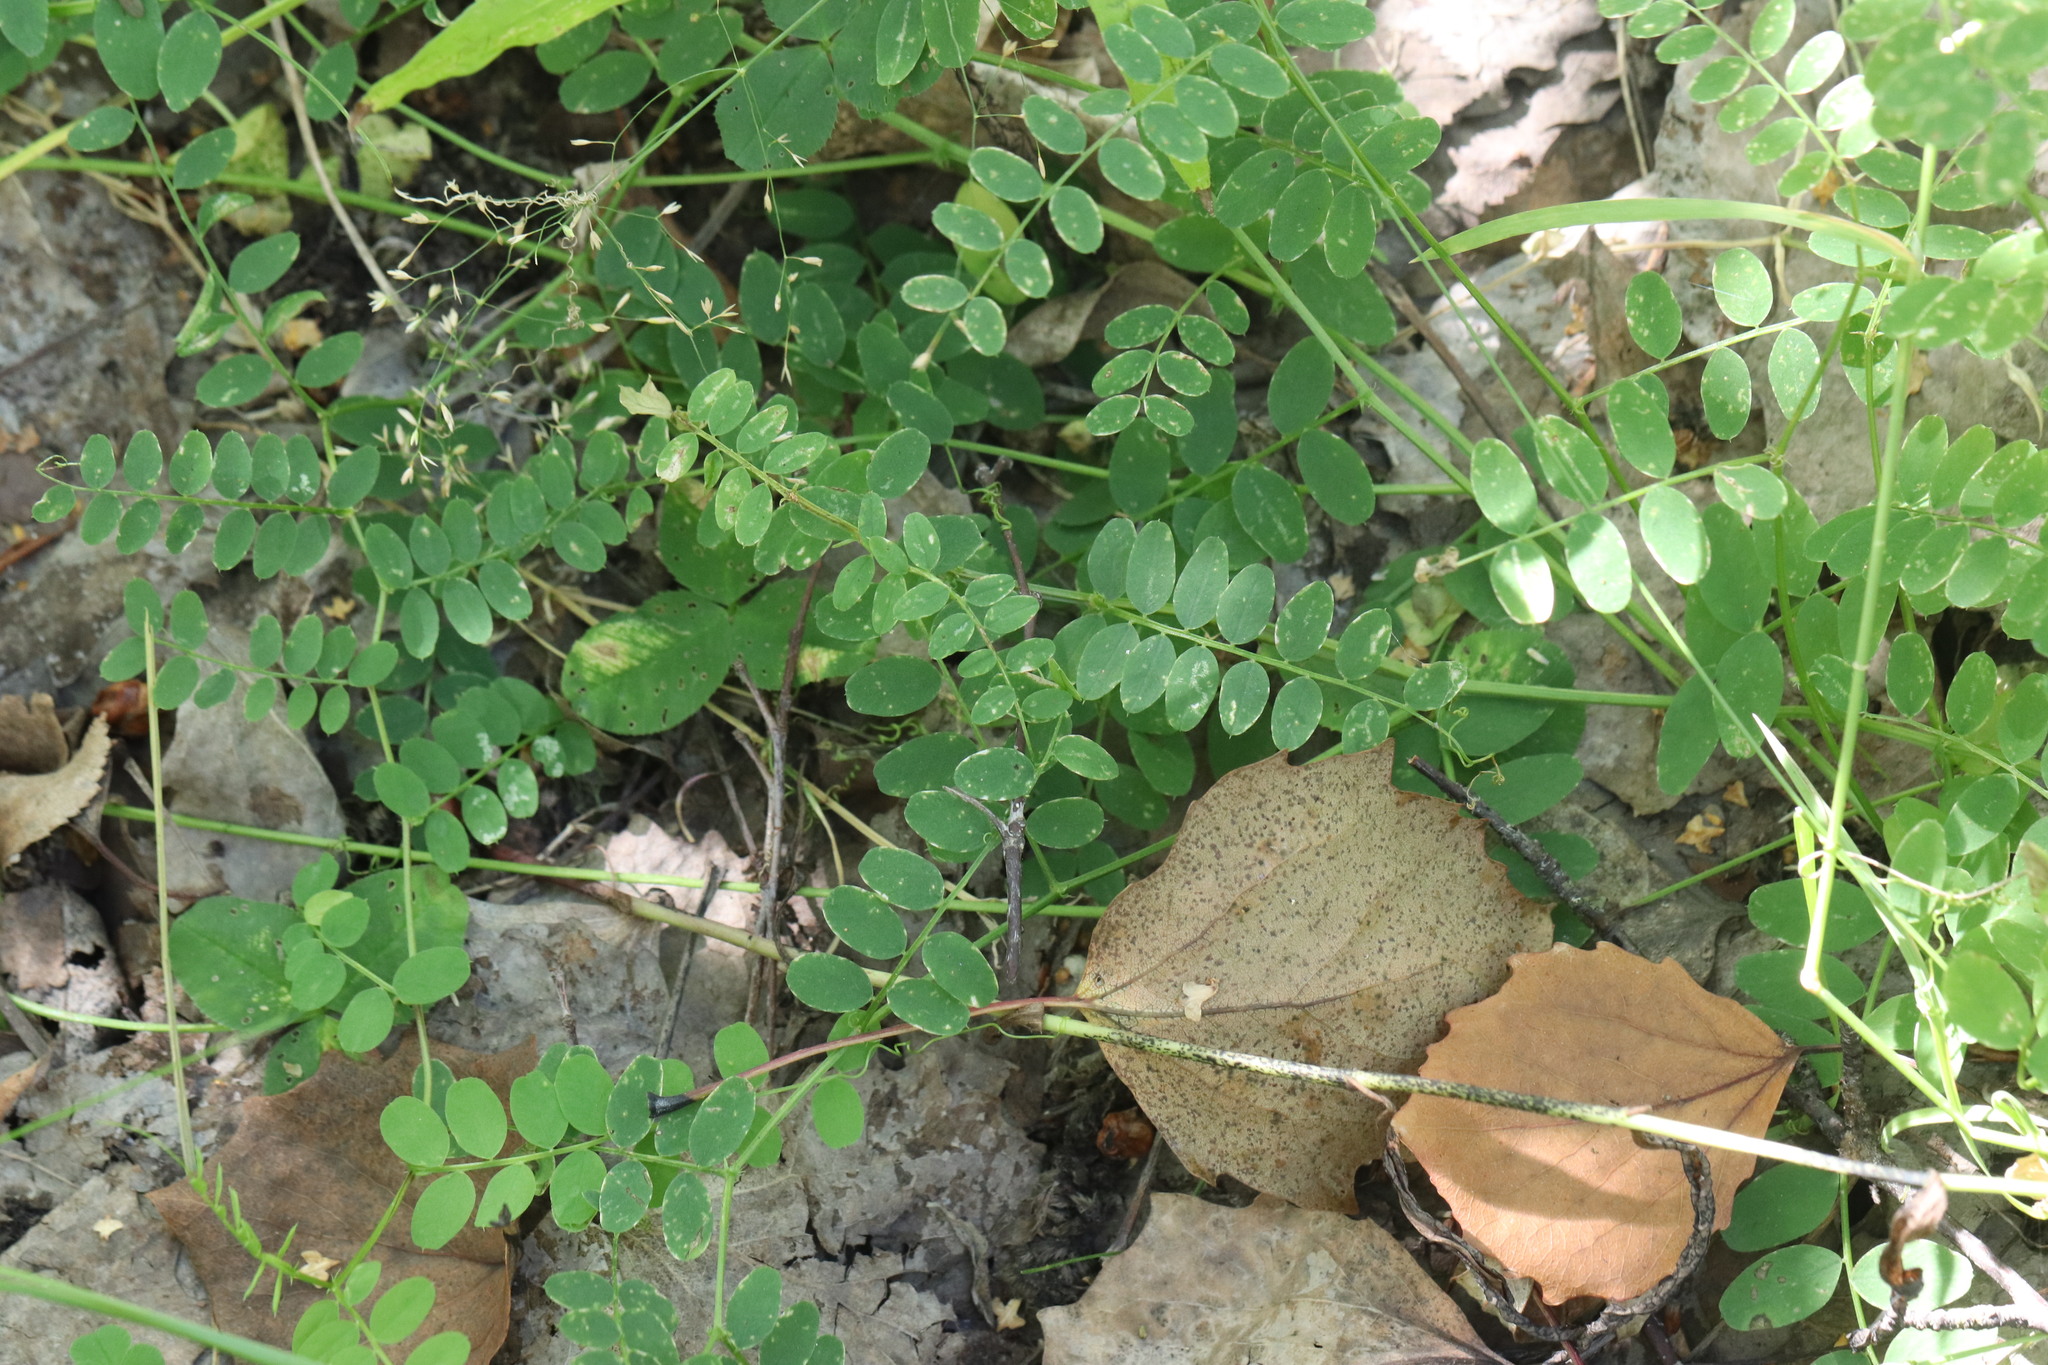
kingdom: Plantae
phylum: Tracheophyta
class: Magnoliopsida
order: Fabales
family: Fabaceae
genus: Vicia
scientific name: Vicia sylvatica
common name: Wood vetch
